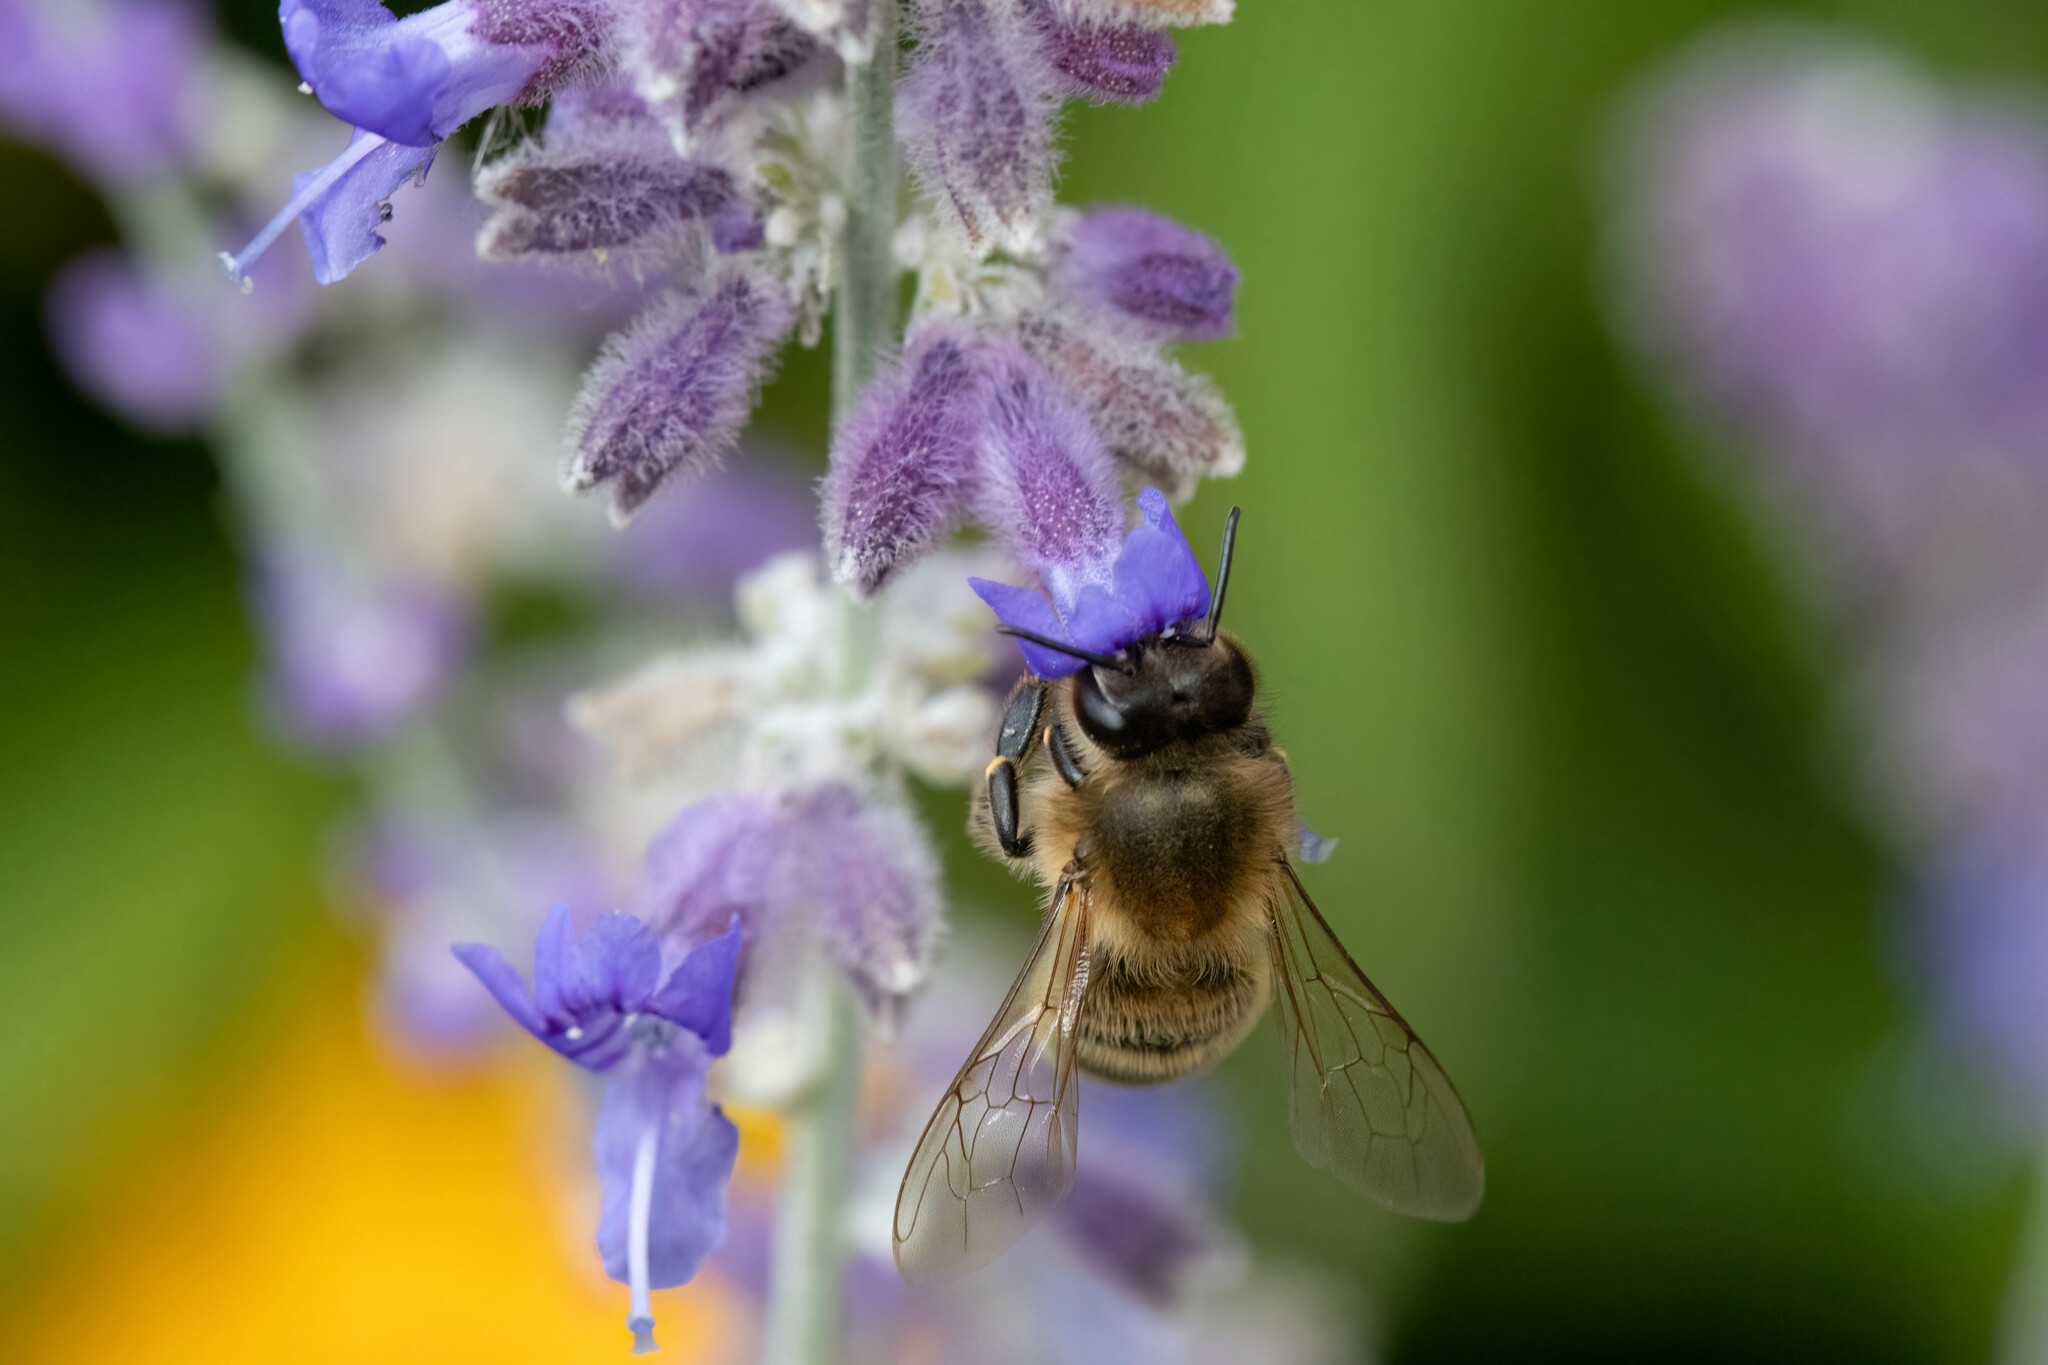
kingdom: Animalia
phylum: Arthropoda
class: Insecta
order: Hymenoptera
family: Apidae
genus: Apis
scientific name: Apis mellifera
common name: Honey bee
